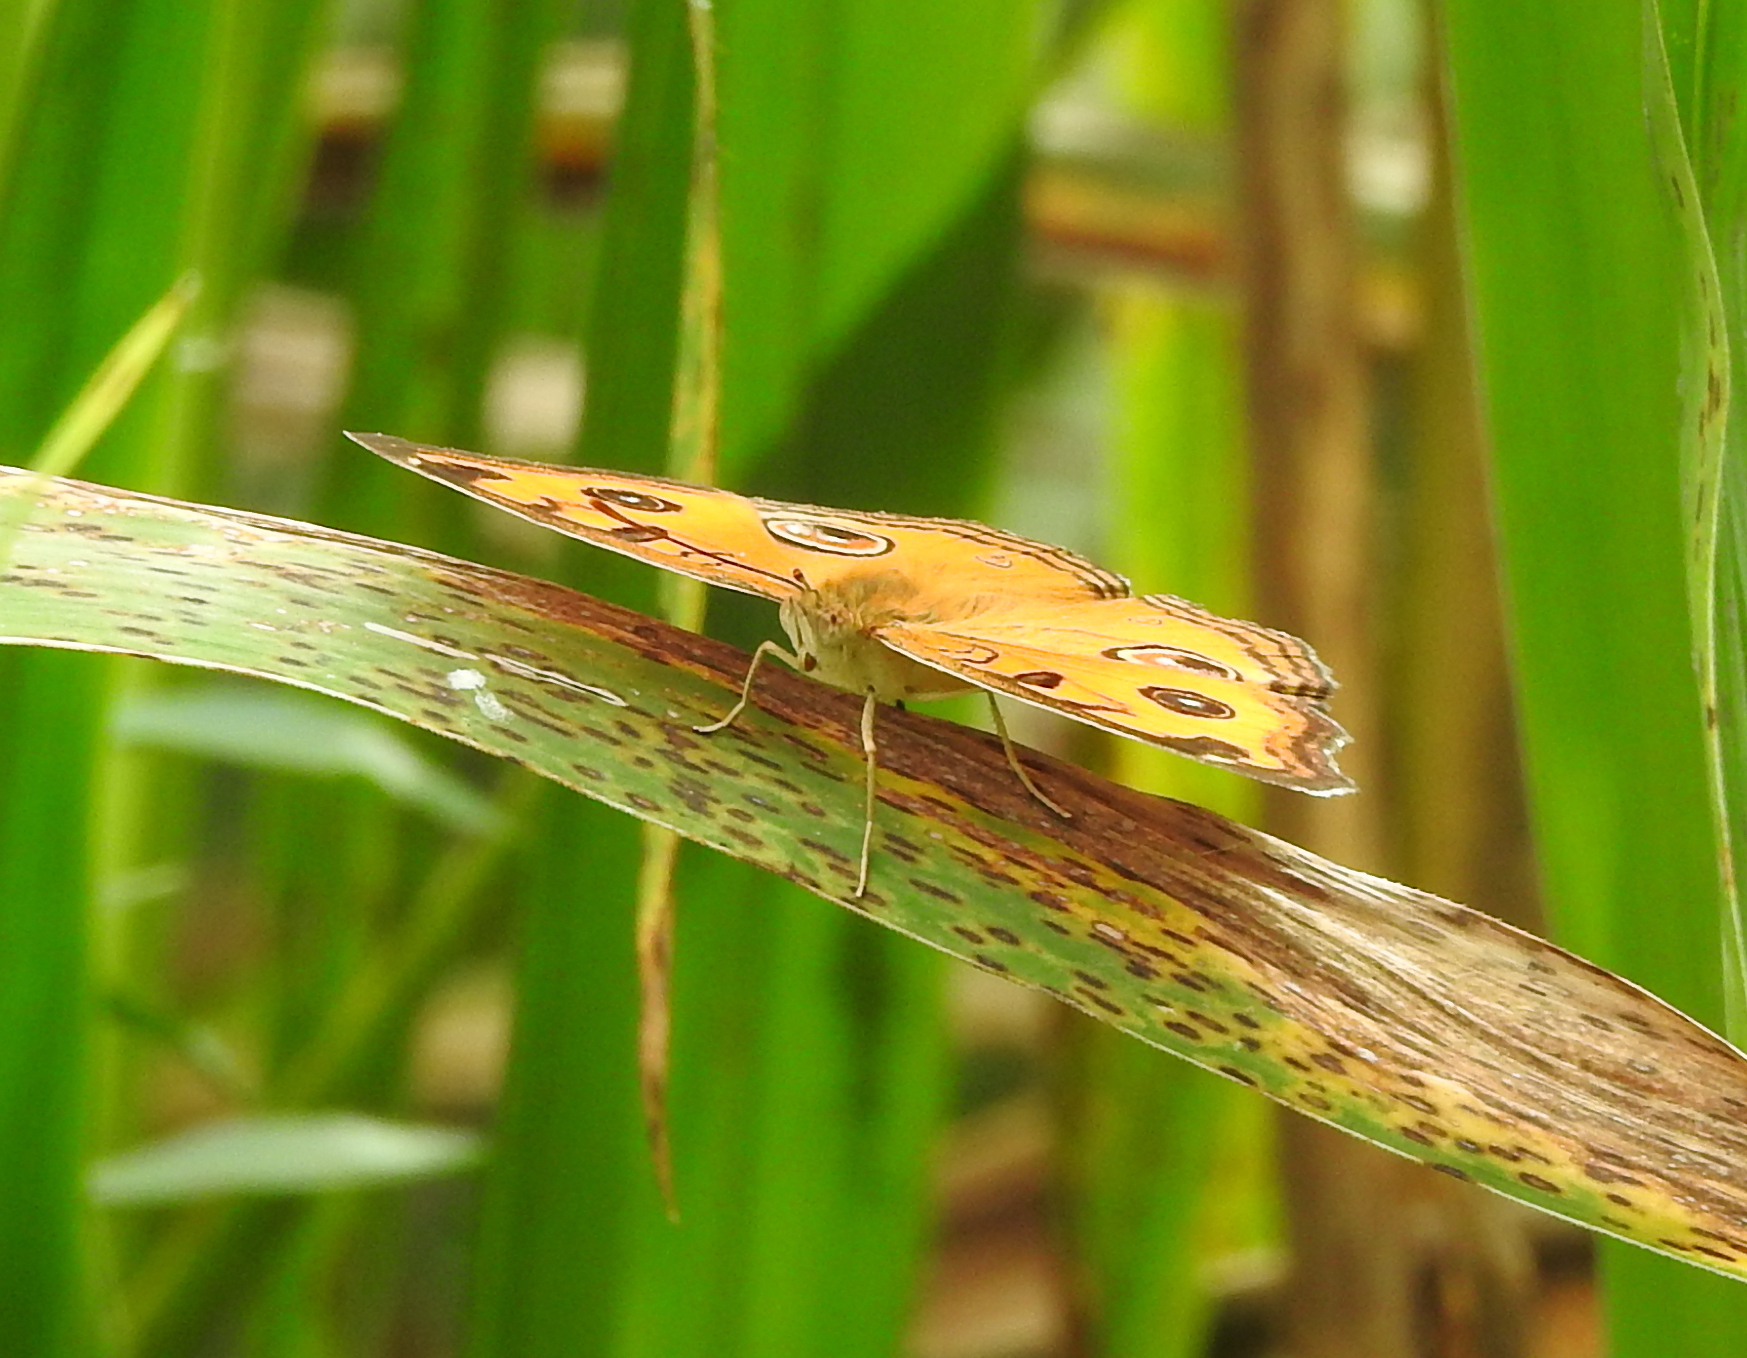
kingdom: Animalia
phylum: Arthropoda
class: Insecta
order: Lepidoptera
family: Nymphalidae
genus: Junonia
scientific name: Junonia almana
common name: Peacock pansy
